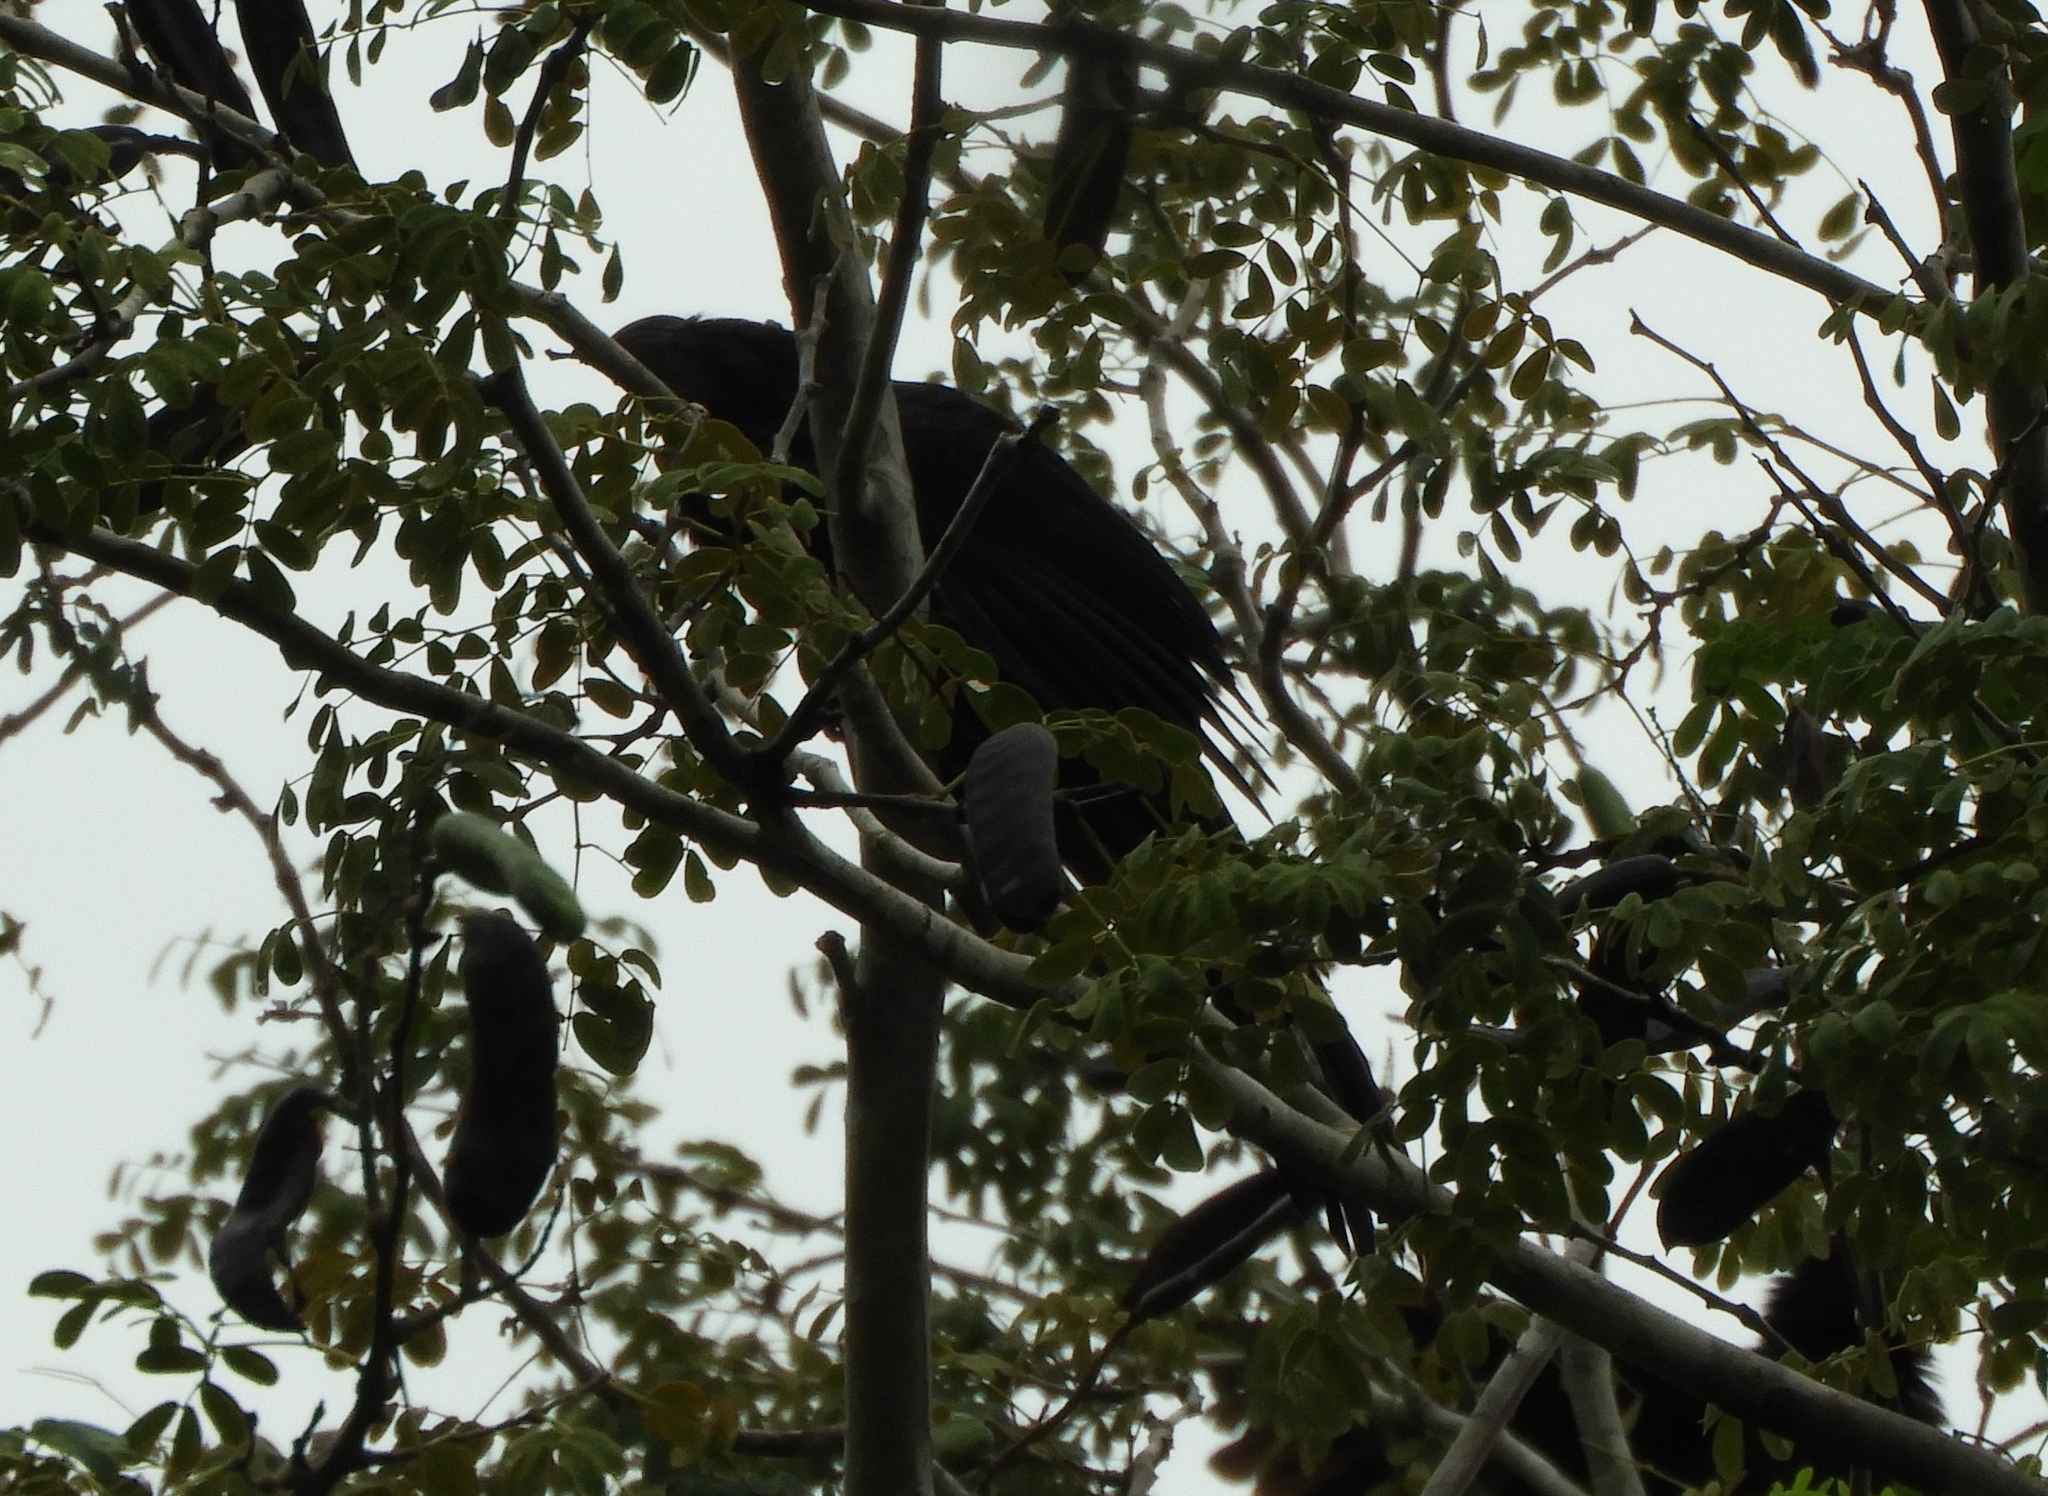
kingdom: Animalia
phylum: Chordata
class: Aves
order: Cuculiformes
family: Cuculidae
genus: Crotophaga
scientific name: Crotophaga sulcirostris
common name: Groove-billed ani
